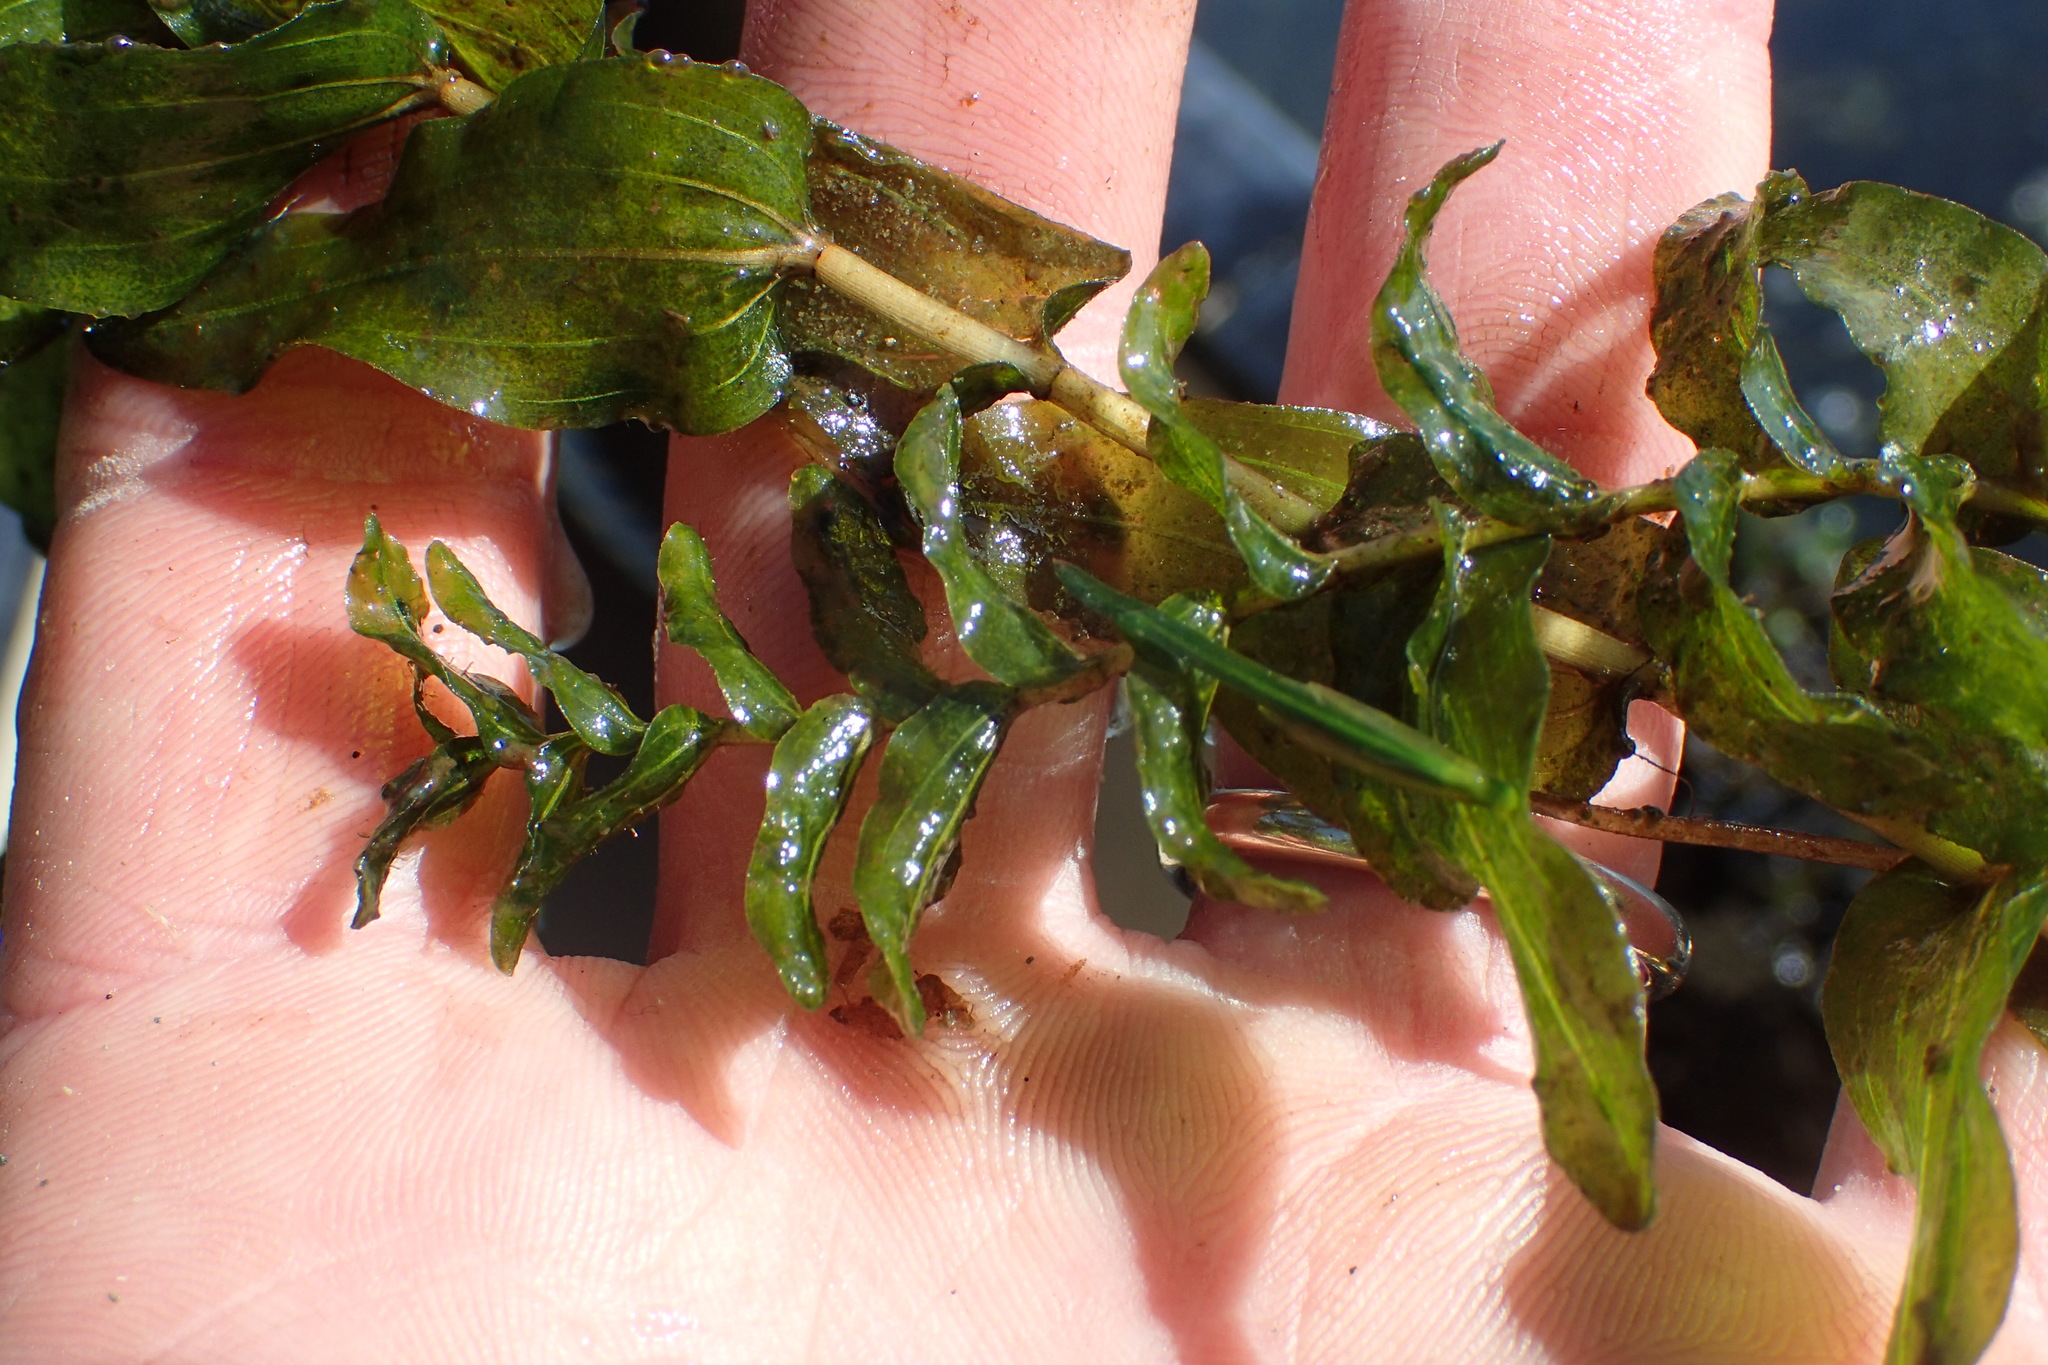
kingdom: Plantae
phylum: Tracheophyta
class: Liliopsida
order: Alismatales
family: Potamogetonaceae
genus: Potamogeton
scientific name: Potamogeton richardsonii
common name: Richardson's pondweed
